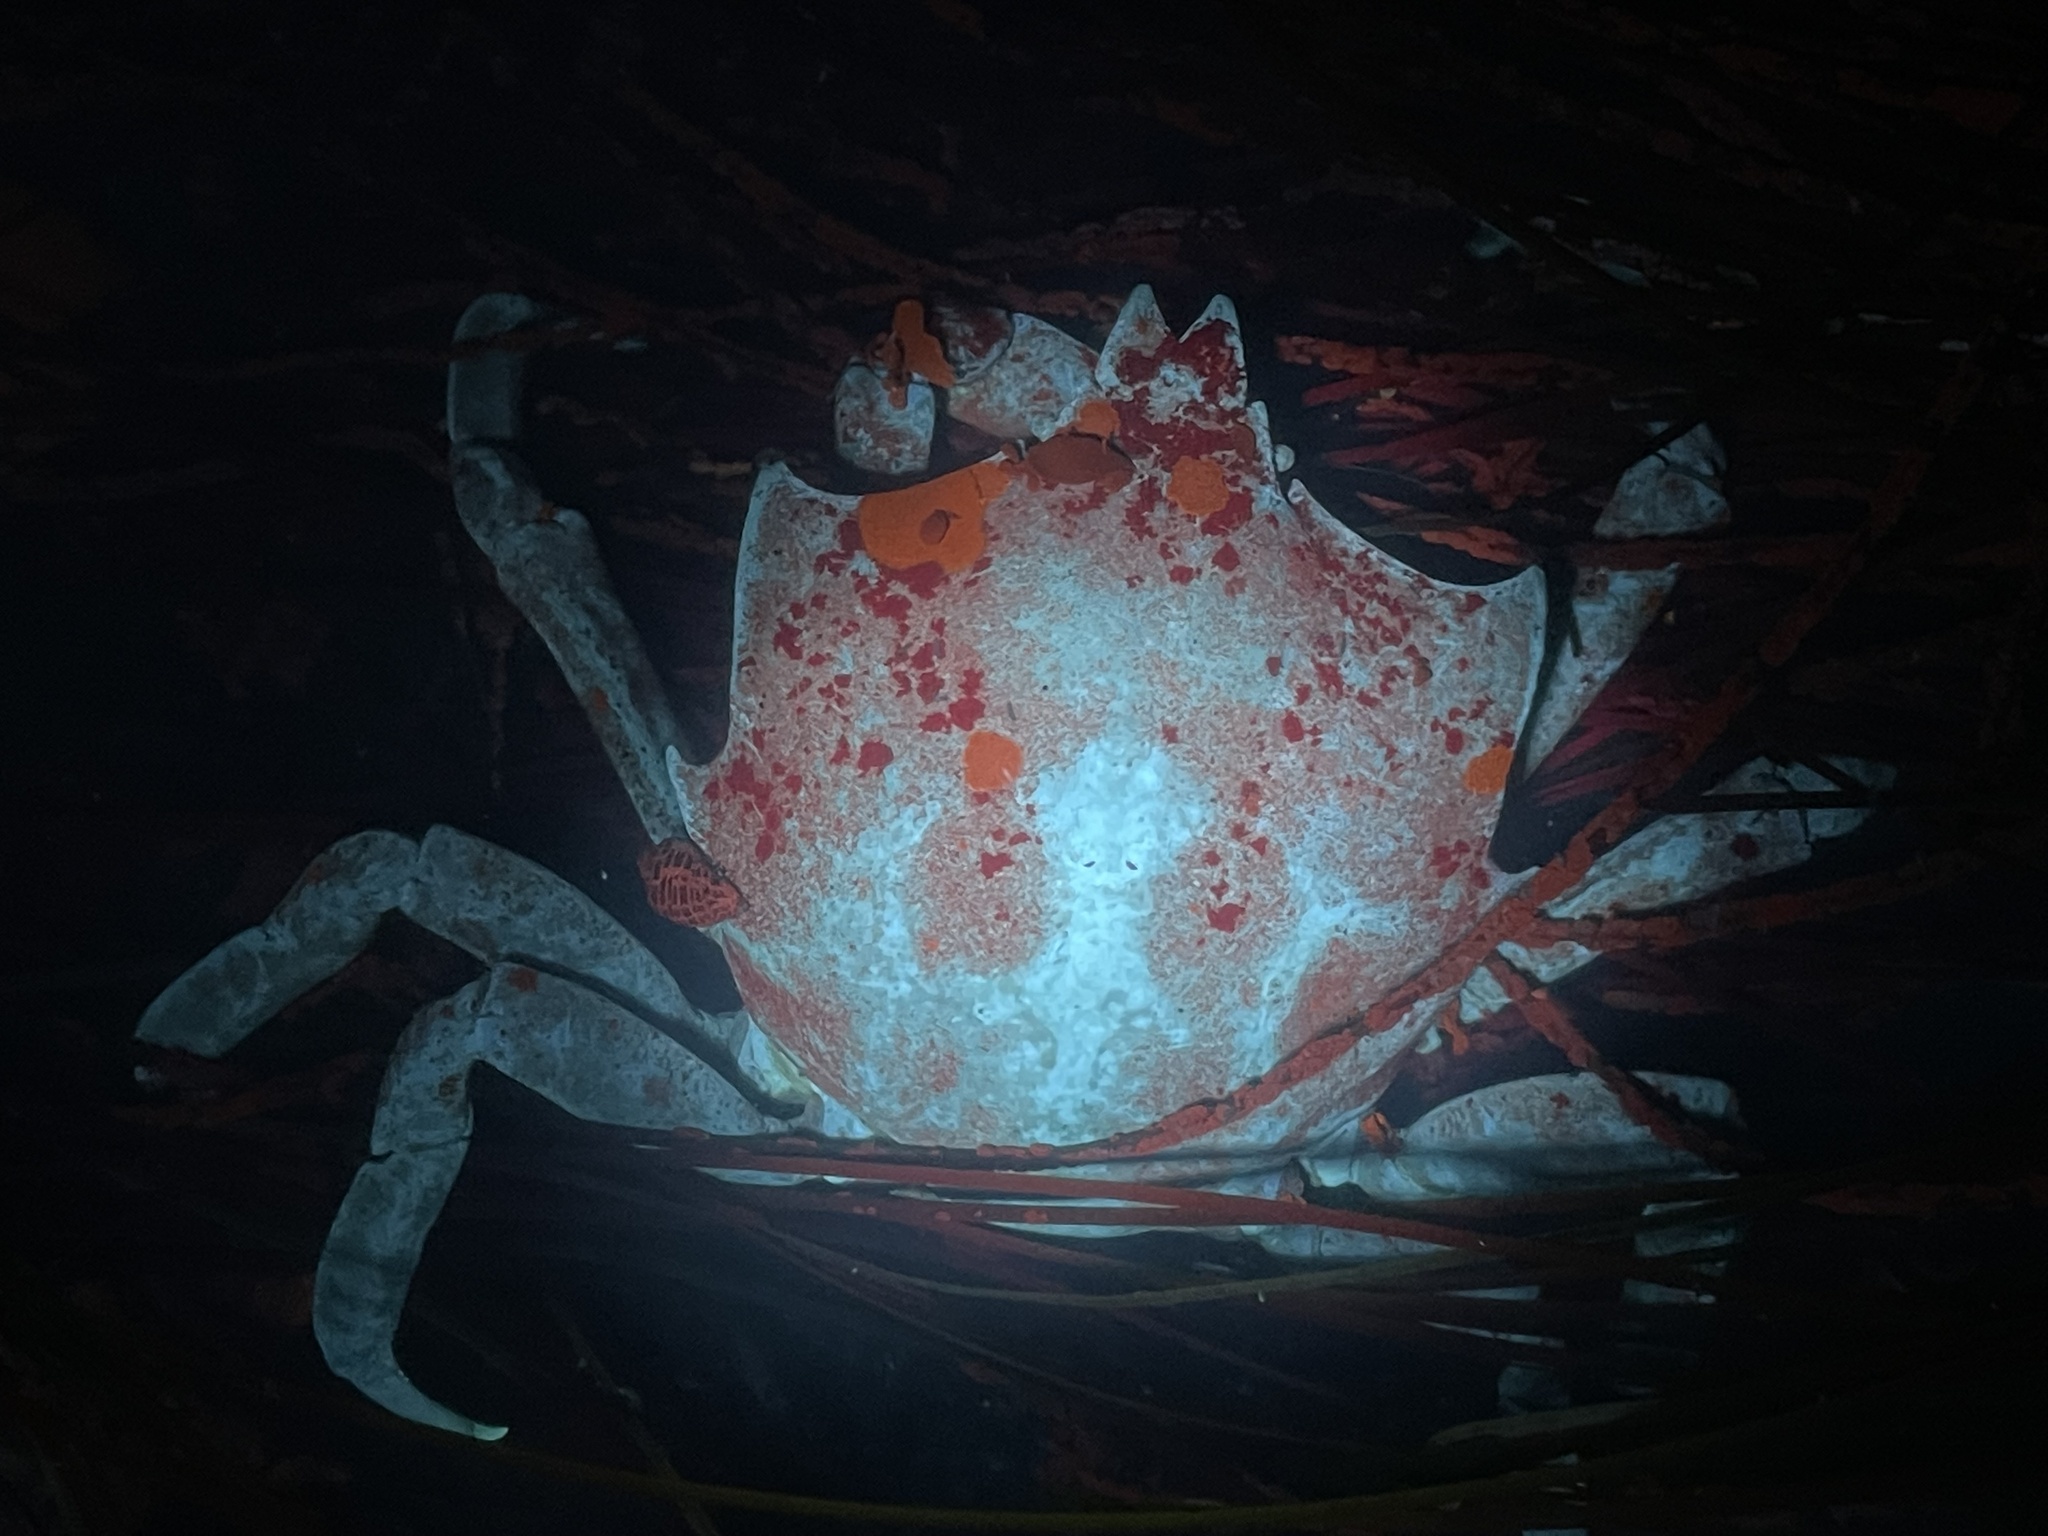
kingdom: Animalia
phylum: Arthropoda
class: Malacostraca
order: Decapoda
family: Epialtidae
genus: Pugettia
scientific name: Pugettia producta
